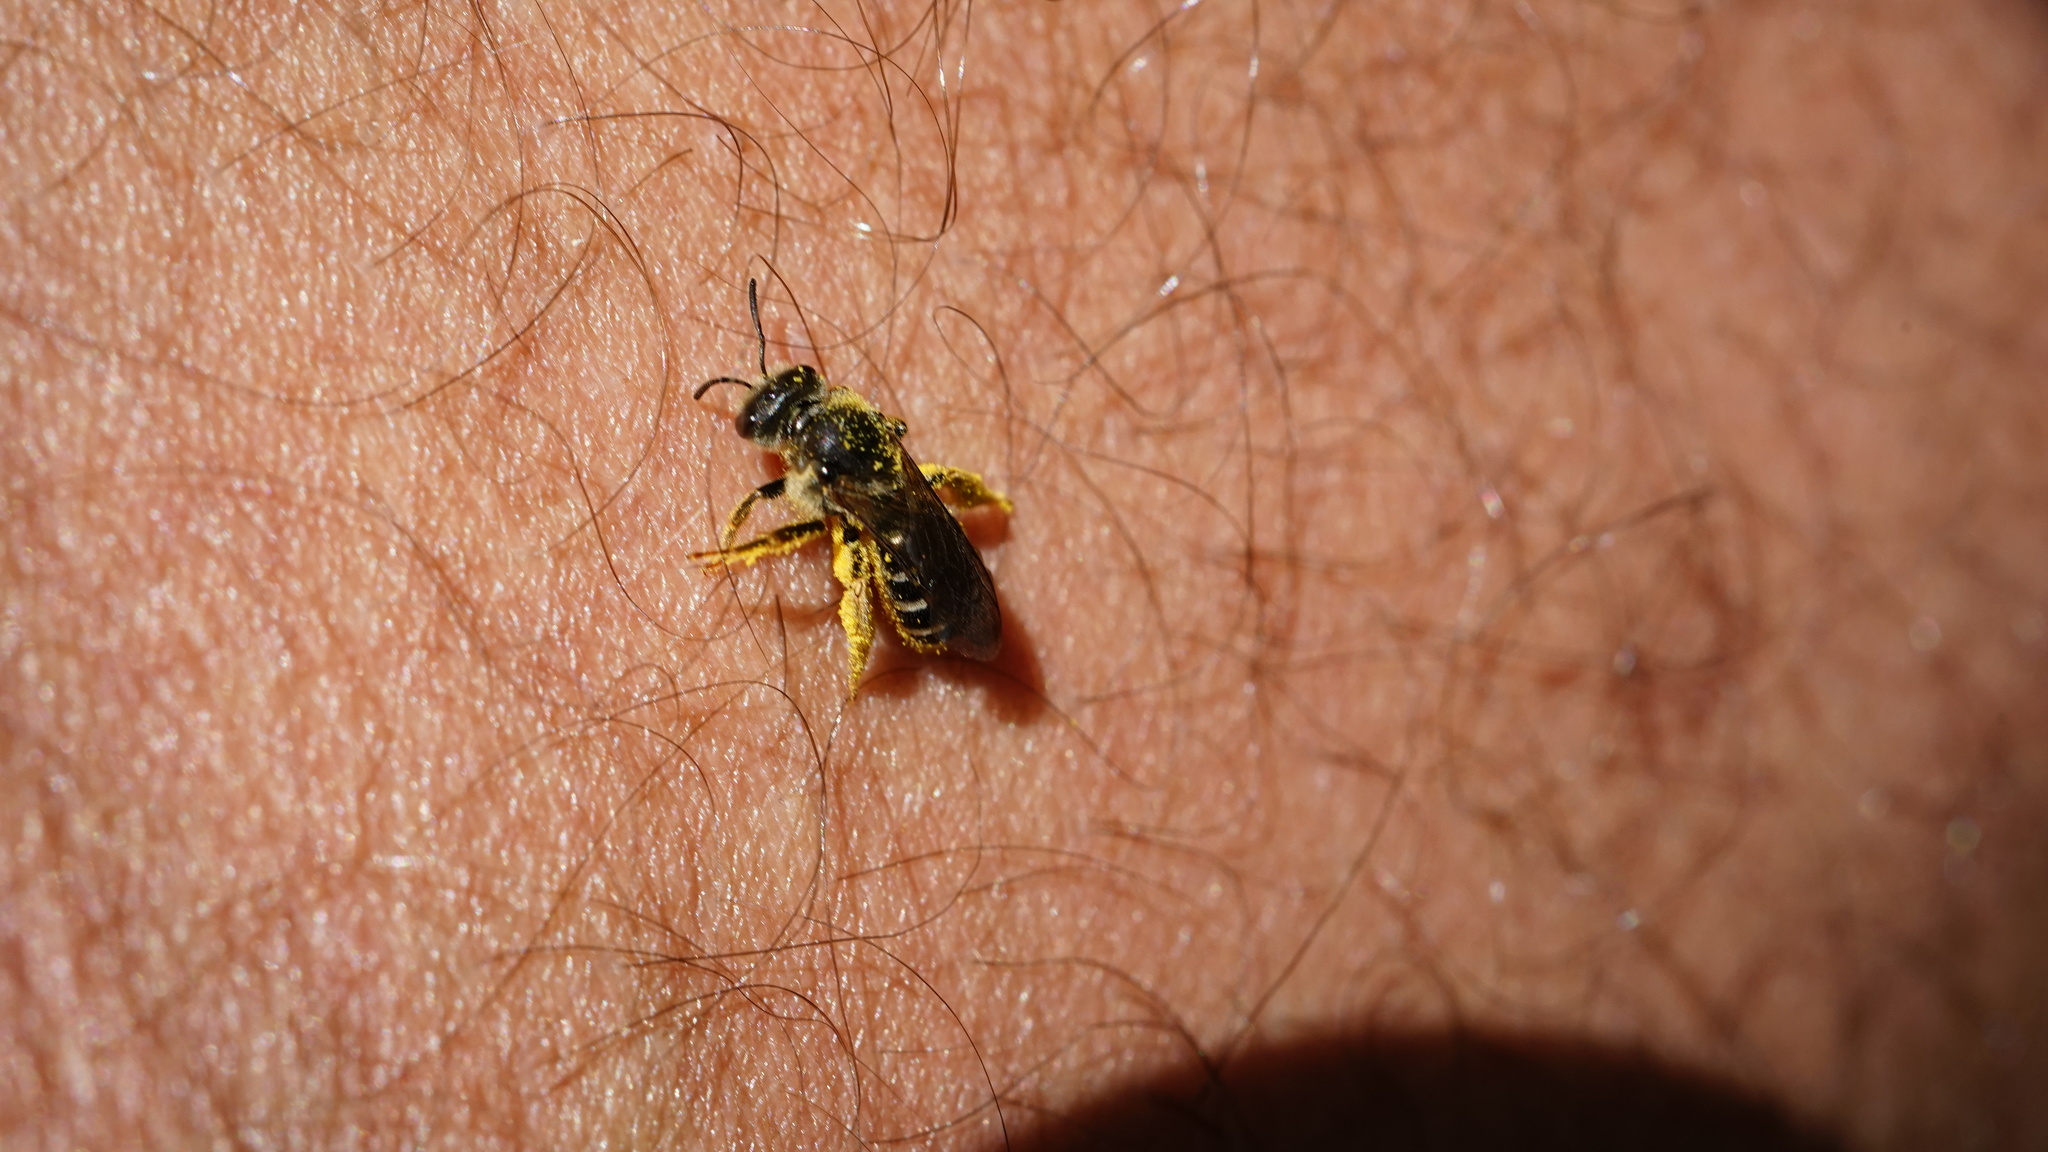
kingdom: Animalia
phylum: Arthropoda
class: Insecta
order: Hymenoptera
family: Halictidae
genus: Halictus
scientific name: Halictus rubicundus
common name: Orange-legged furrow bee
